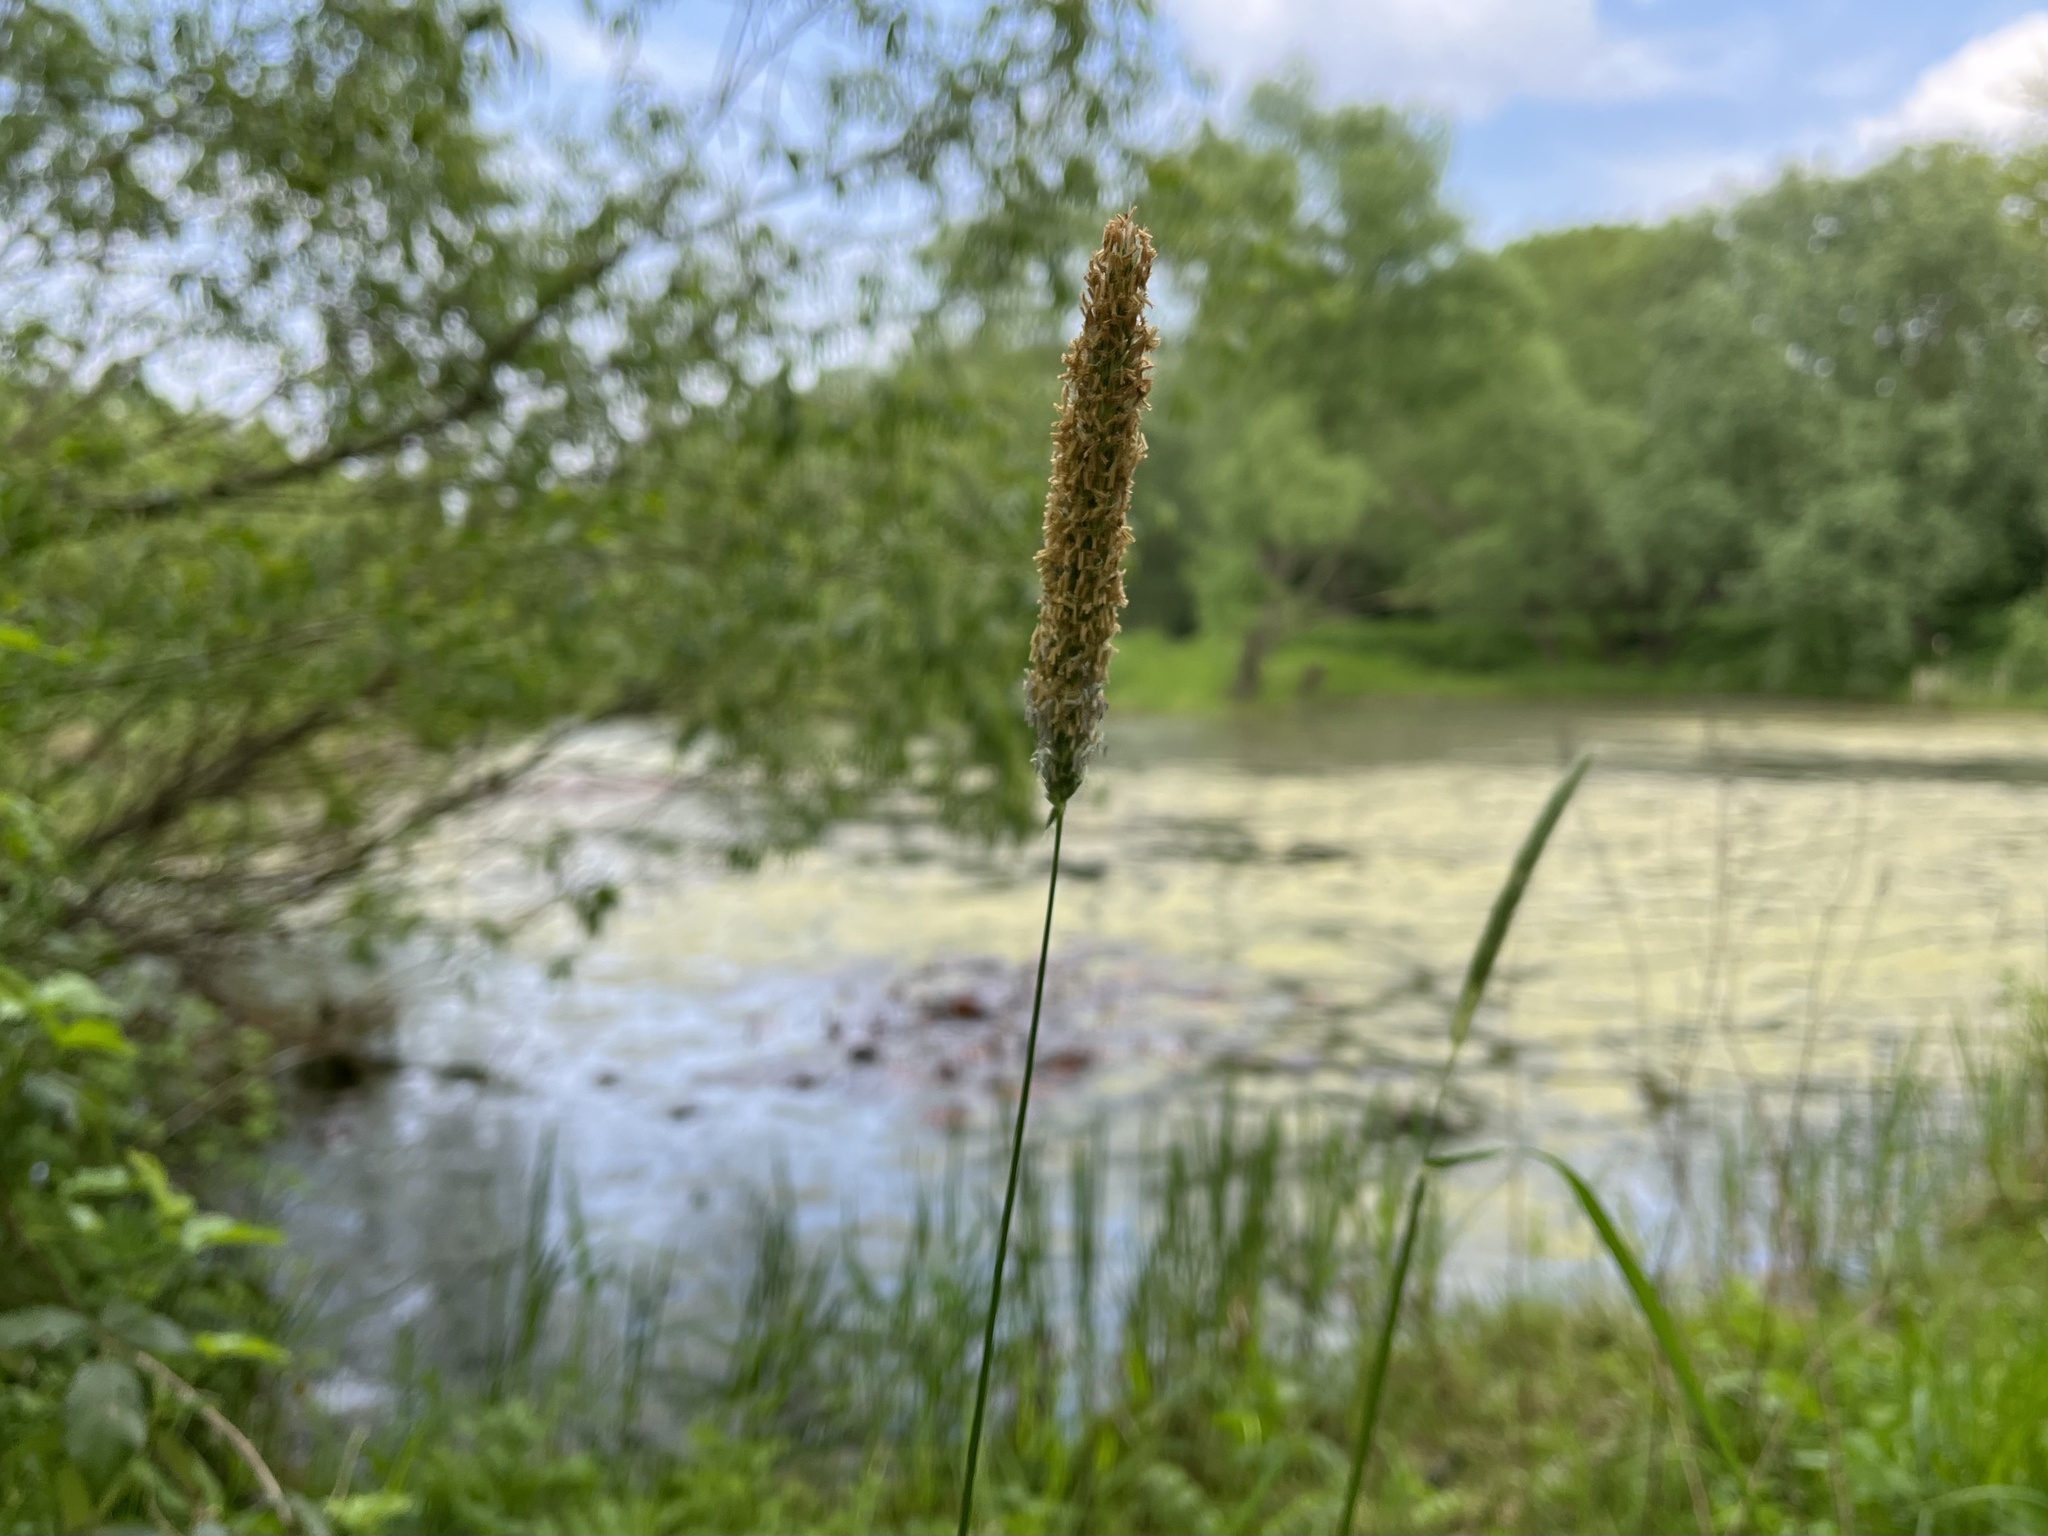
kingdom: Plantae
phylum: Tracheophyta
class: Liliopsida
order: Poales
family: Poaceae
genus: Alopecurus
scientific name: Alopecurus pratensis
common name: Meadow foxtail
